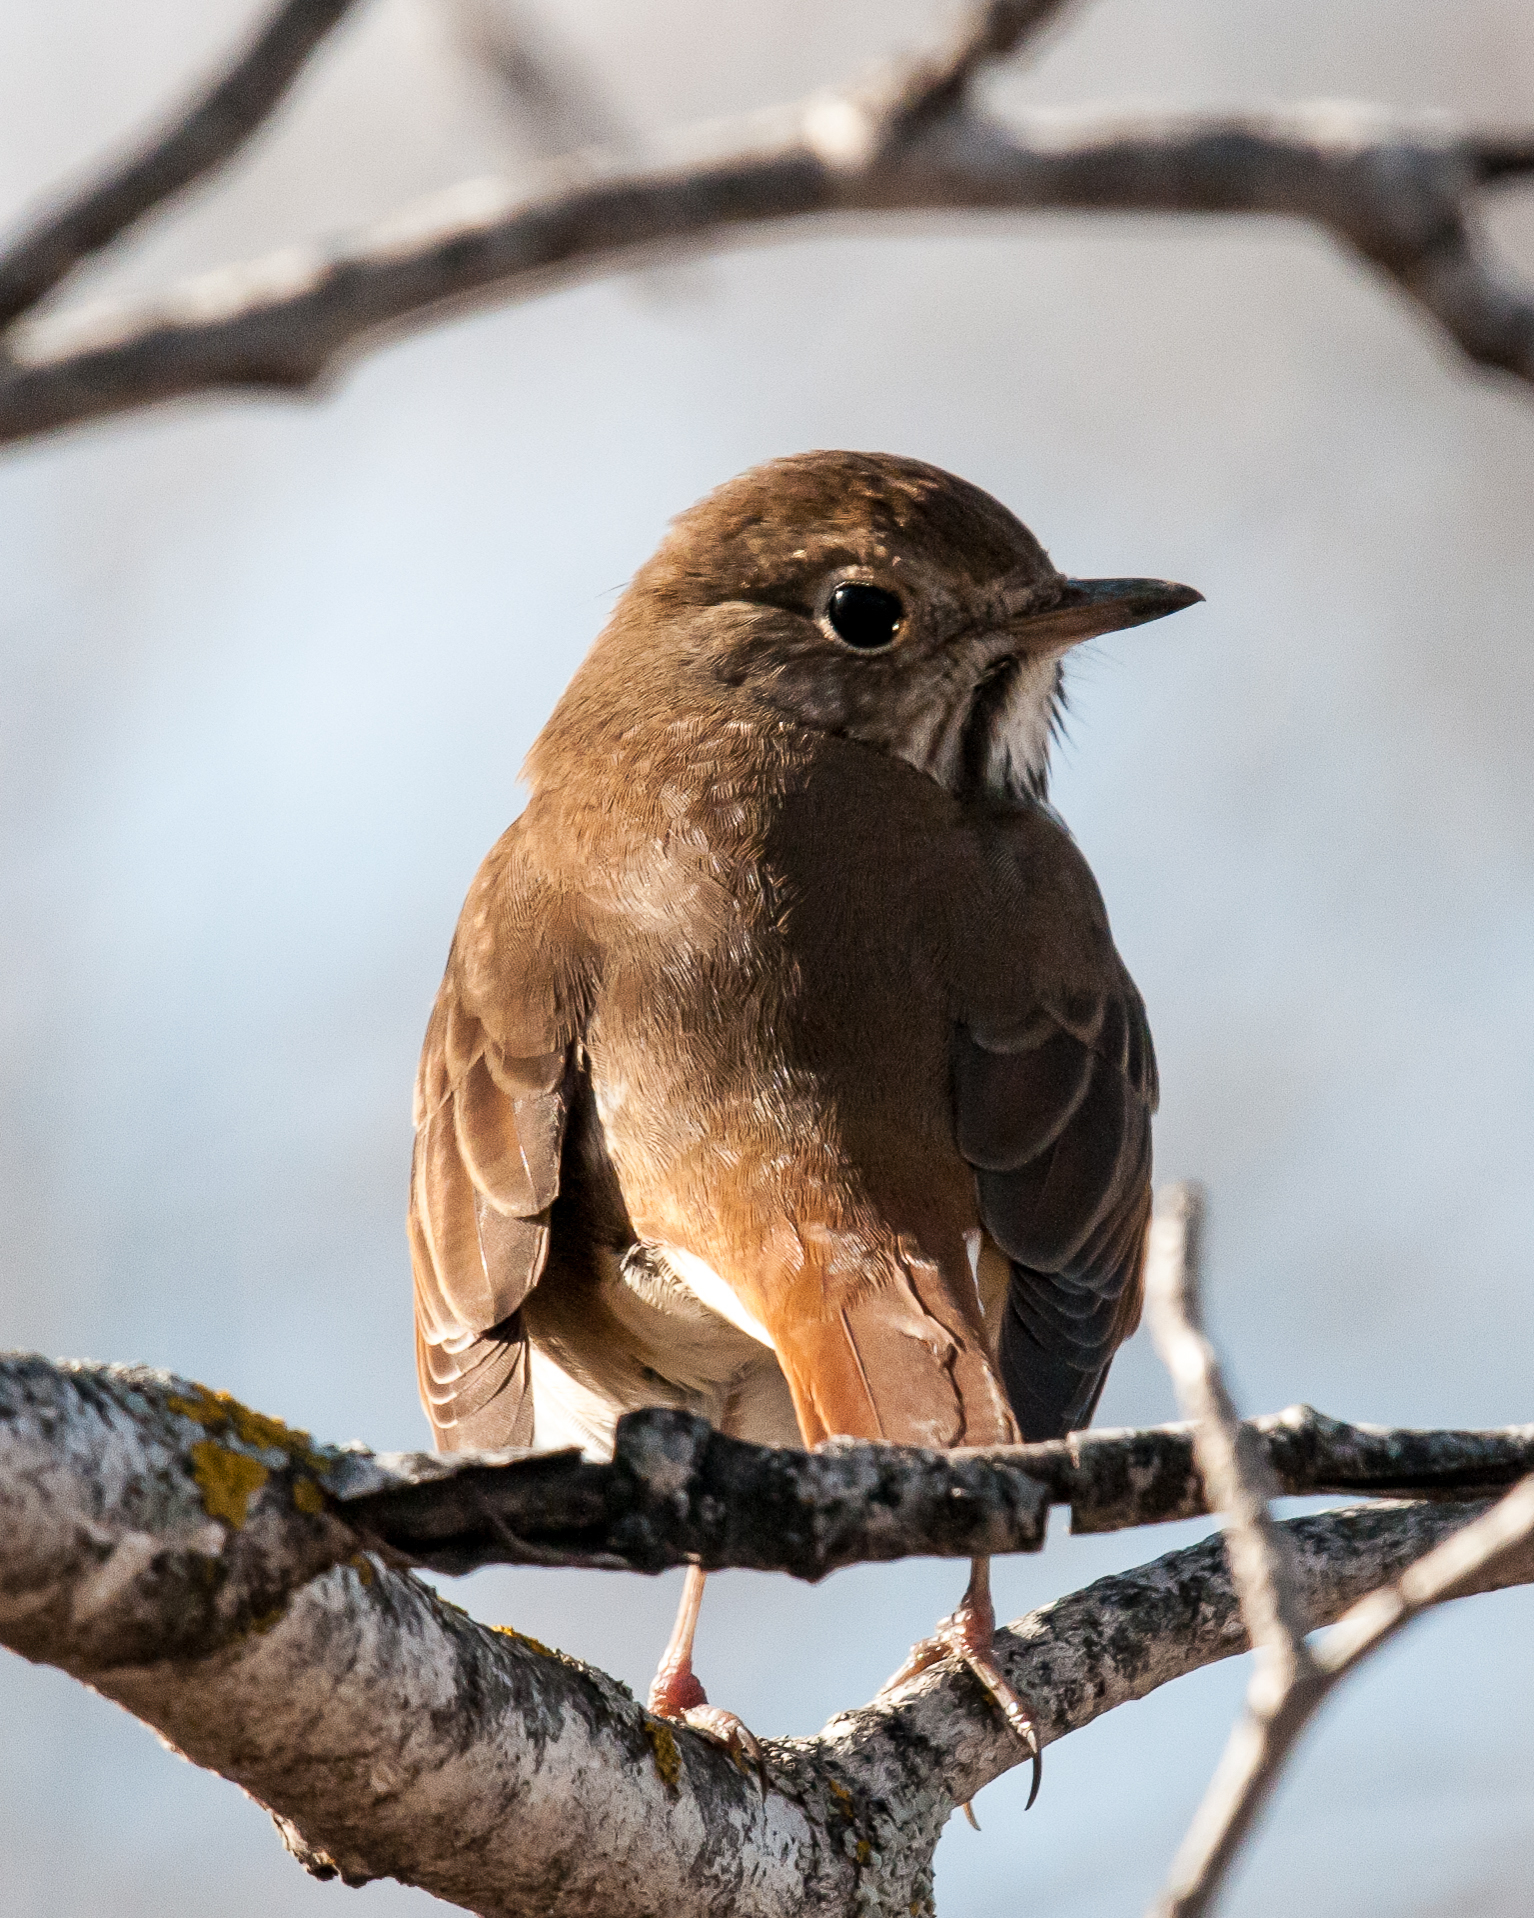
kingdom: Animalia
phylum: Chordata
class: Aves
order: Passeriformes
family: Turdidae
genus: Catharus
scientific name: Catharus guttatus
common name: Hermit thrush
